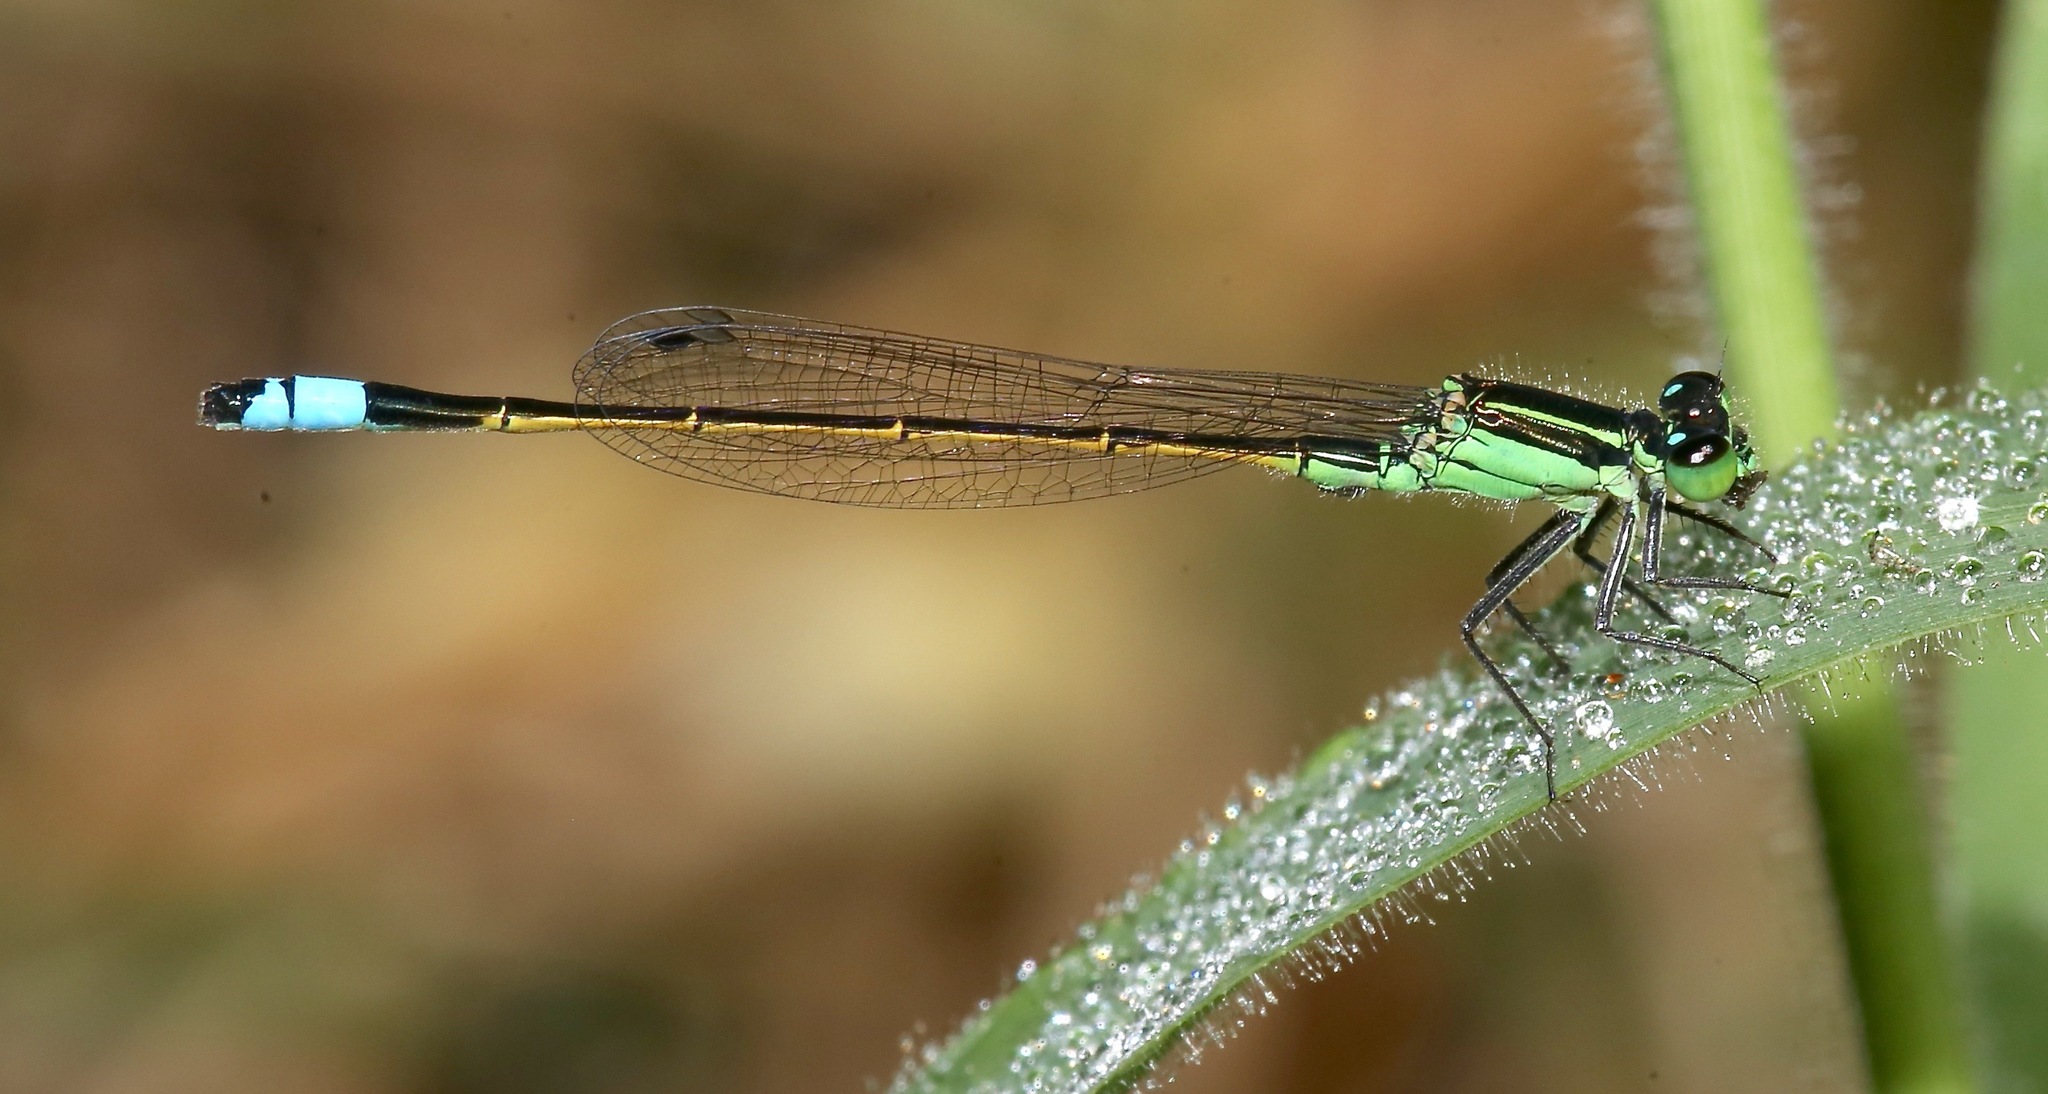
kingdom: Animalia
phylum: Arthropoda
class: Insecta
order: Odonata
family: Coenagrionidae
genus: Ischnura
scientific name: Ischnura ramburii
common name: Rambur's forktail
